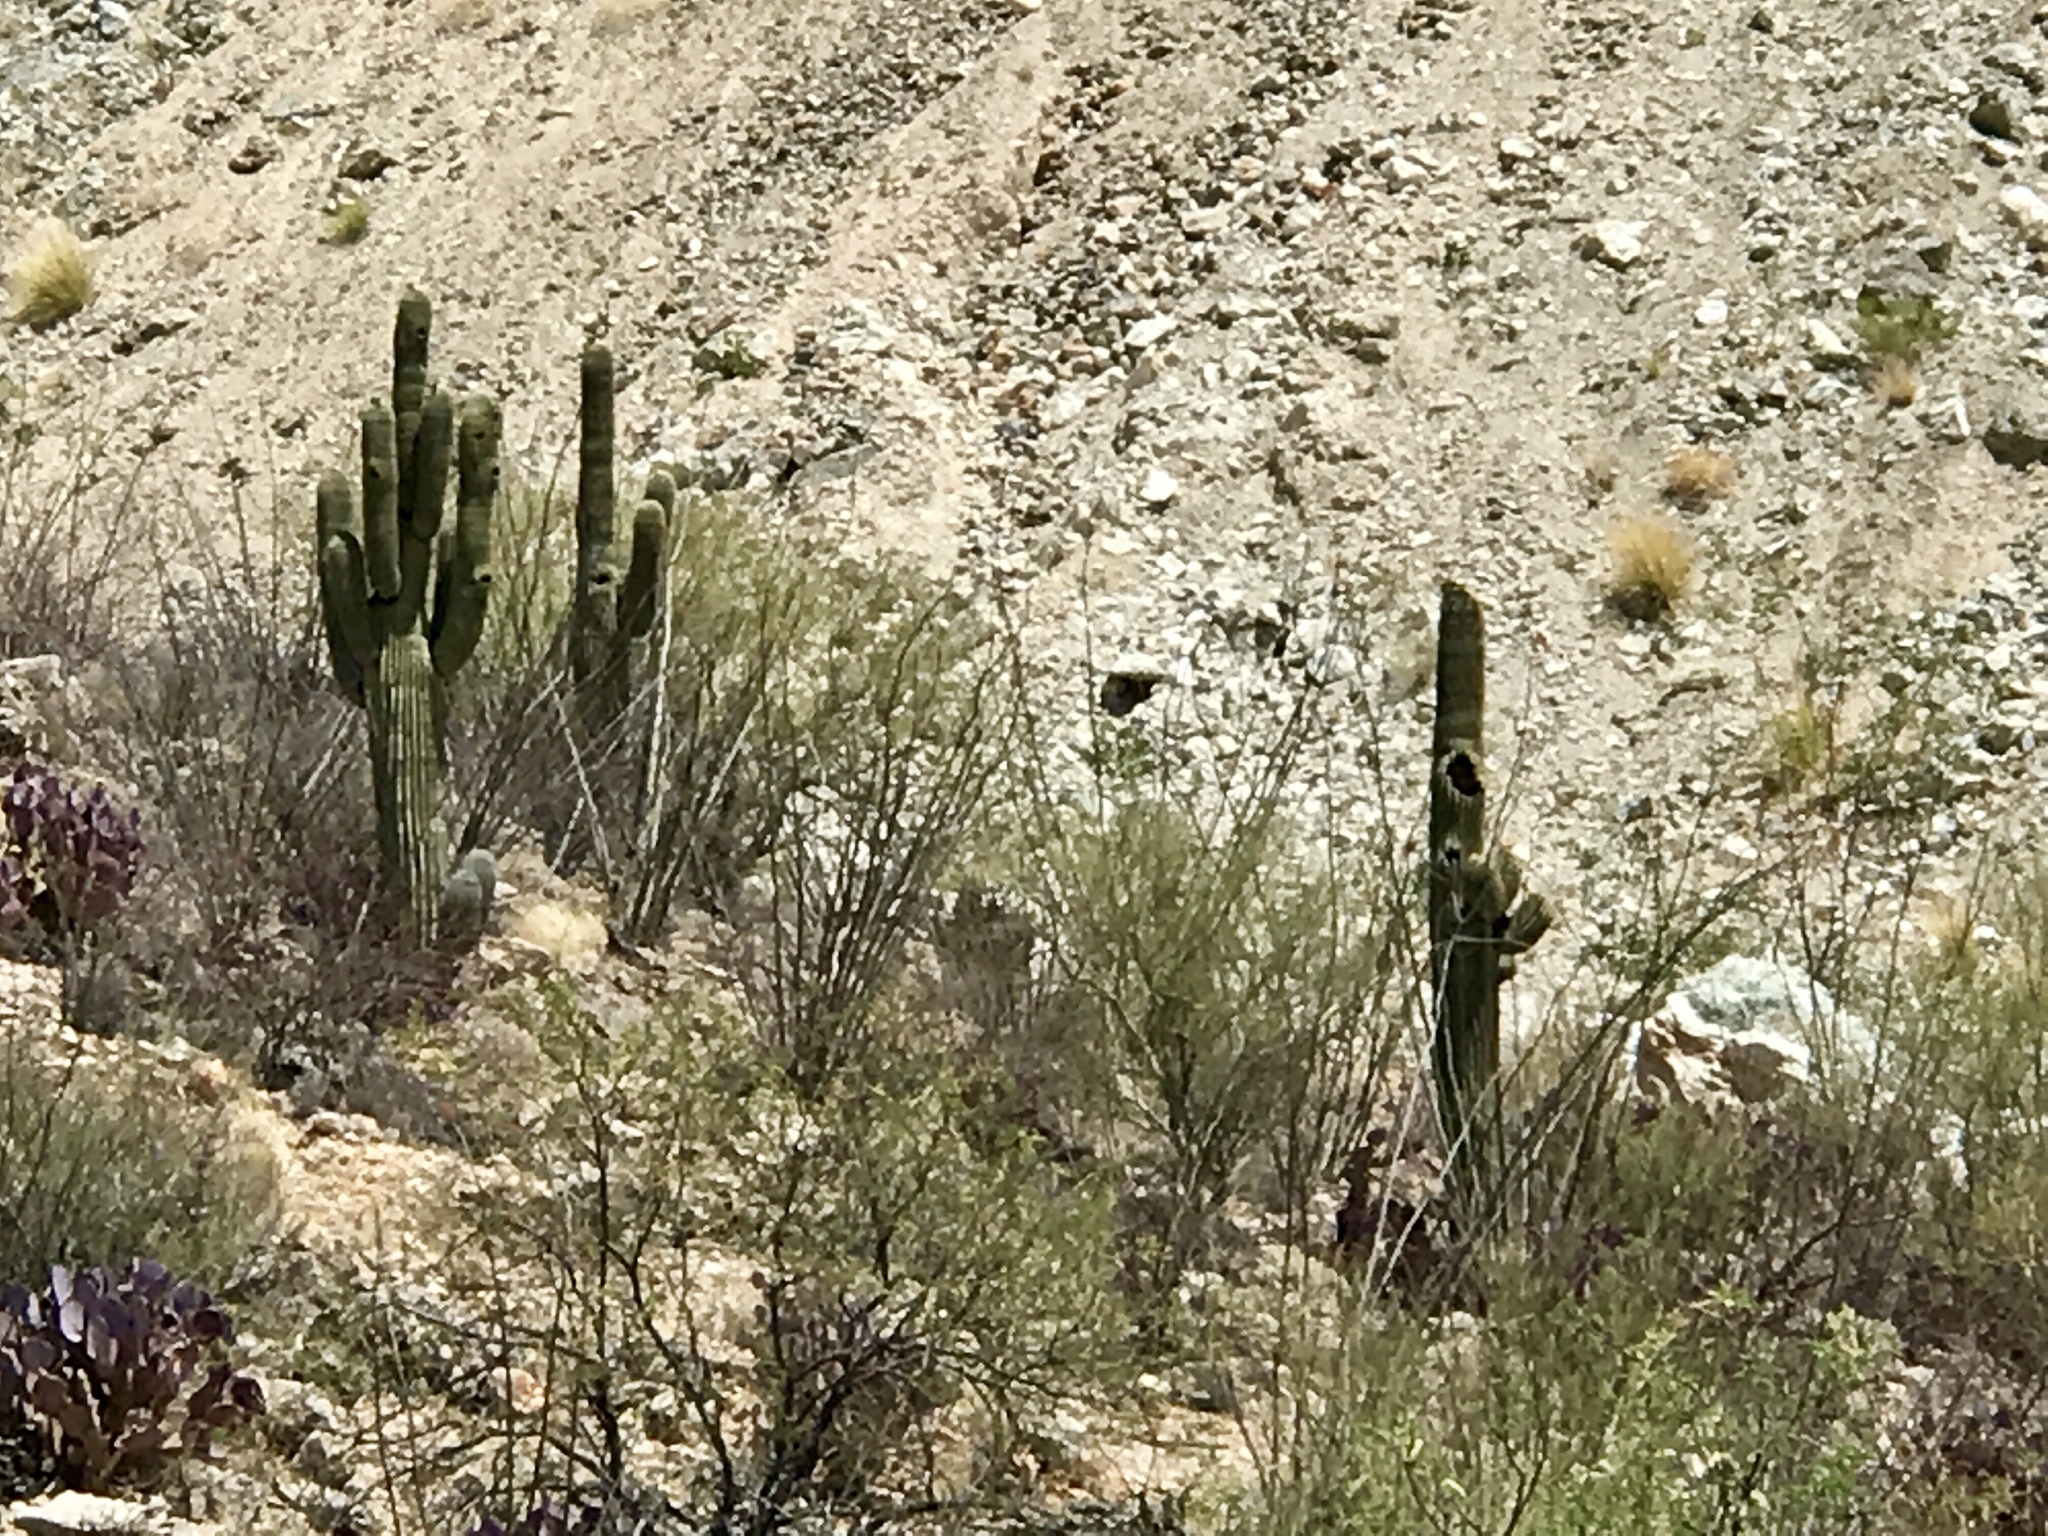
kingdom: Plantae
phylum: Tracheophyta
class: Magnoliopsida
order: Caryophyllales
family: Cactaceae
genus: Carnegiea
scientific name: Carnegiea gigantea
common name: Saguaro
